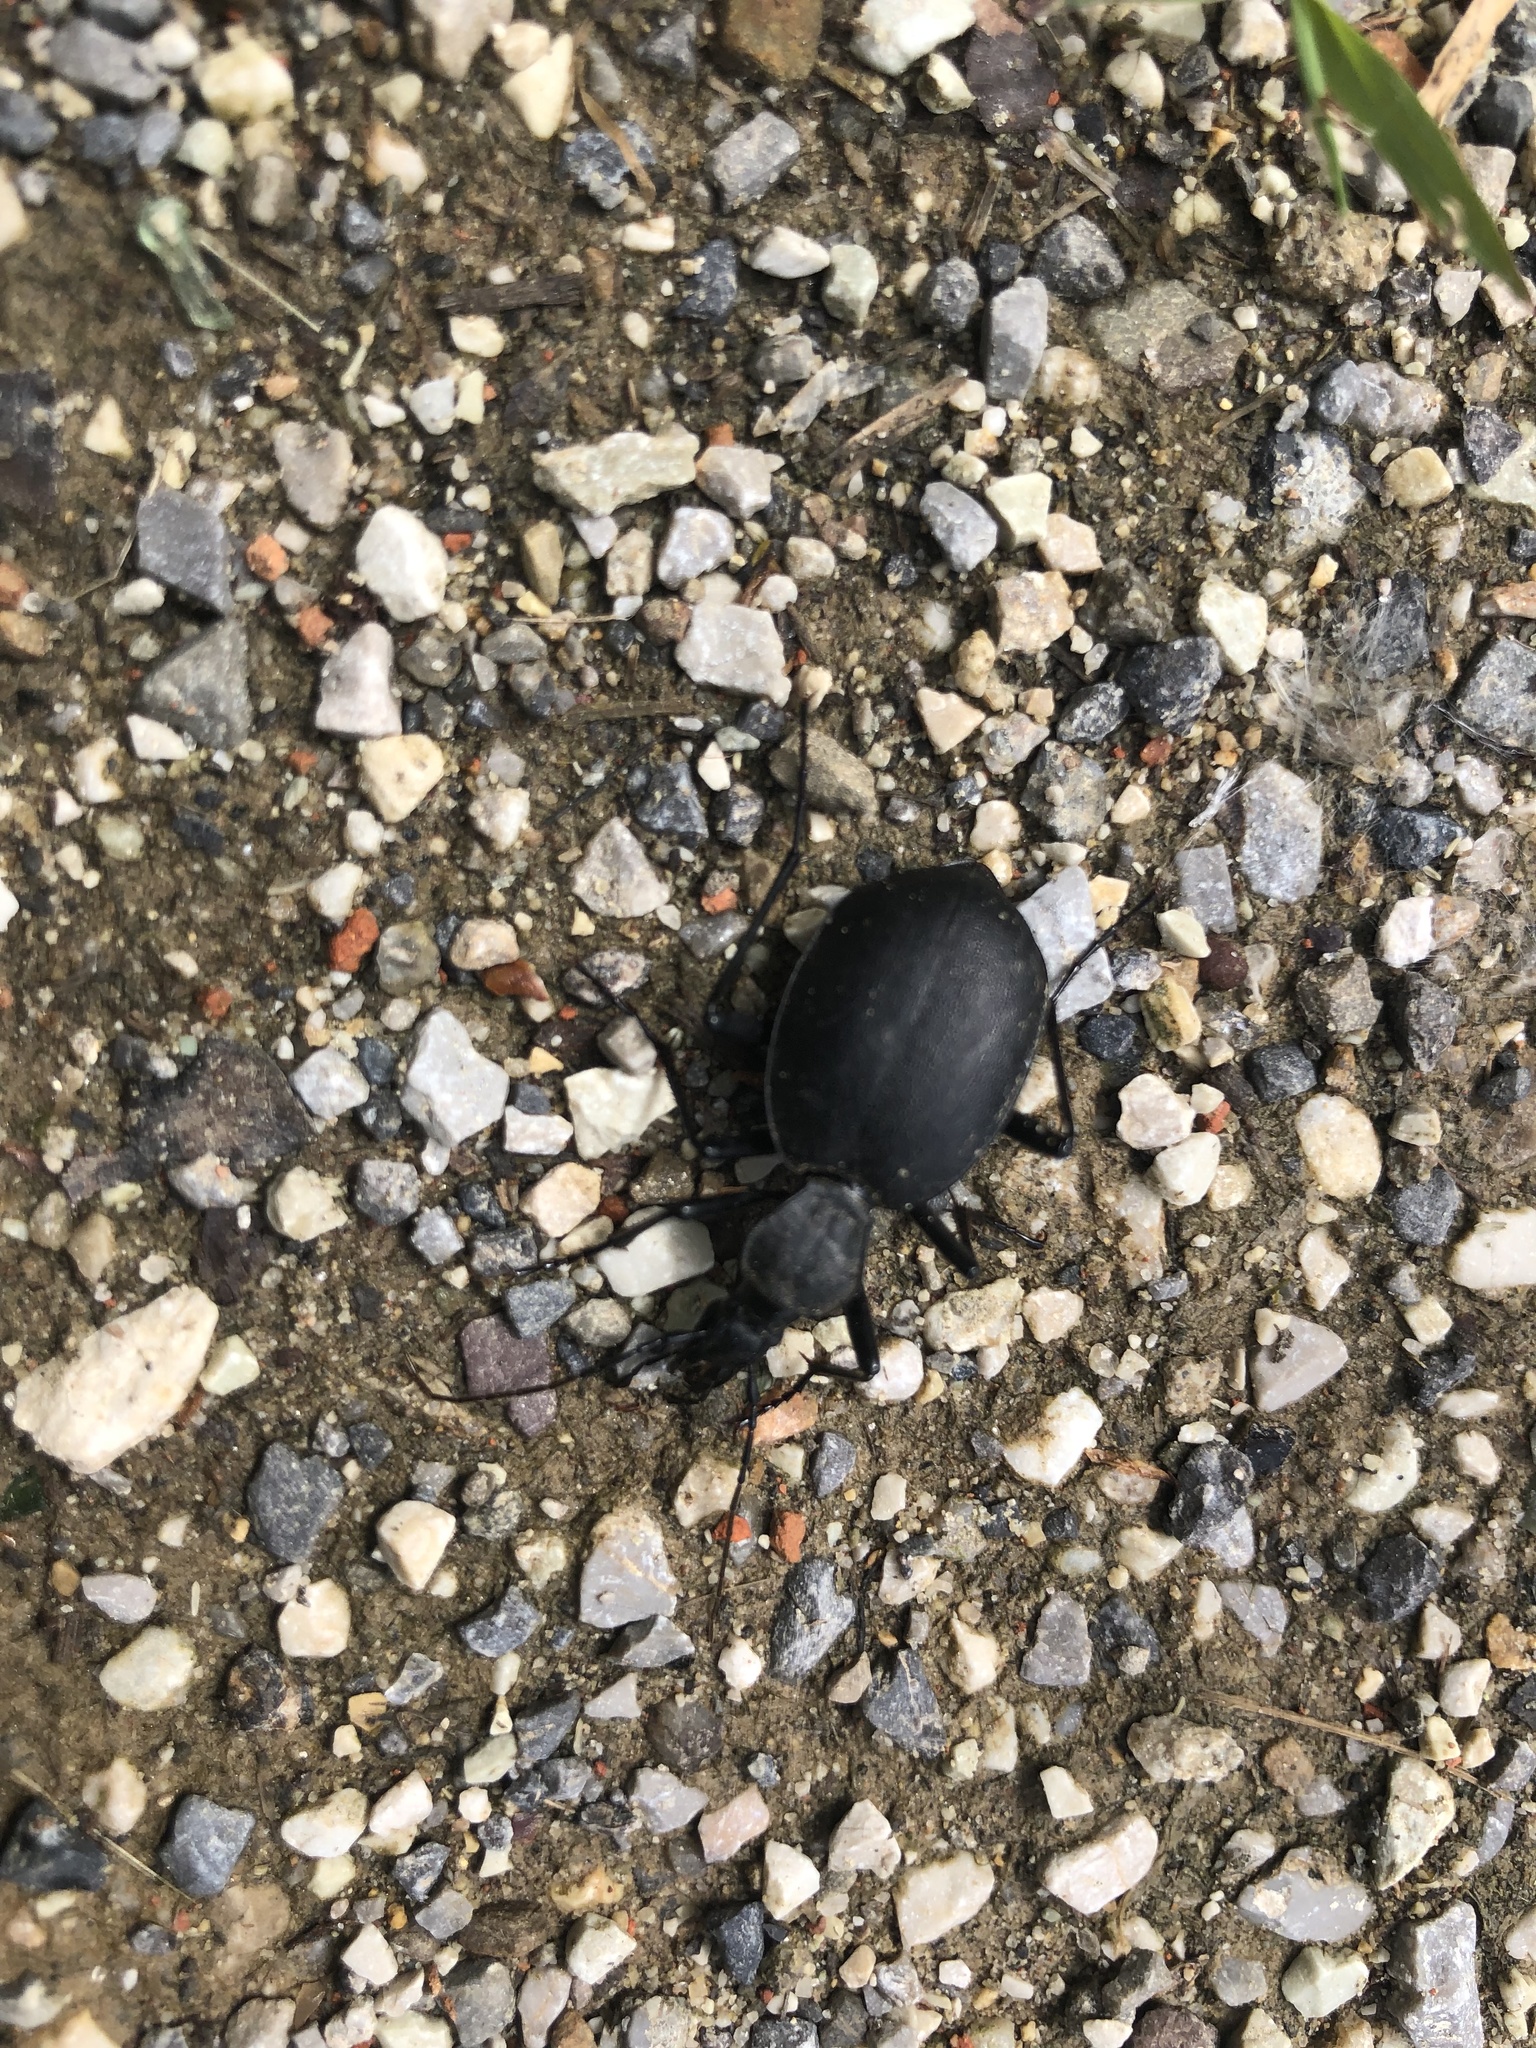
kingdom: Animalia
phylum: Arthropoda
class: Insecta
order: Coleoptera
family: Carabidae
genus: Cychrus
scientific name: Cychrus italicus
